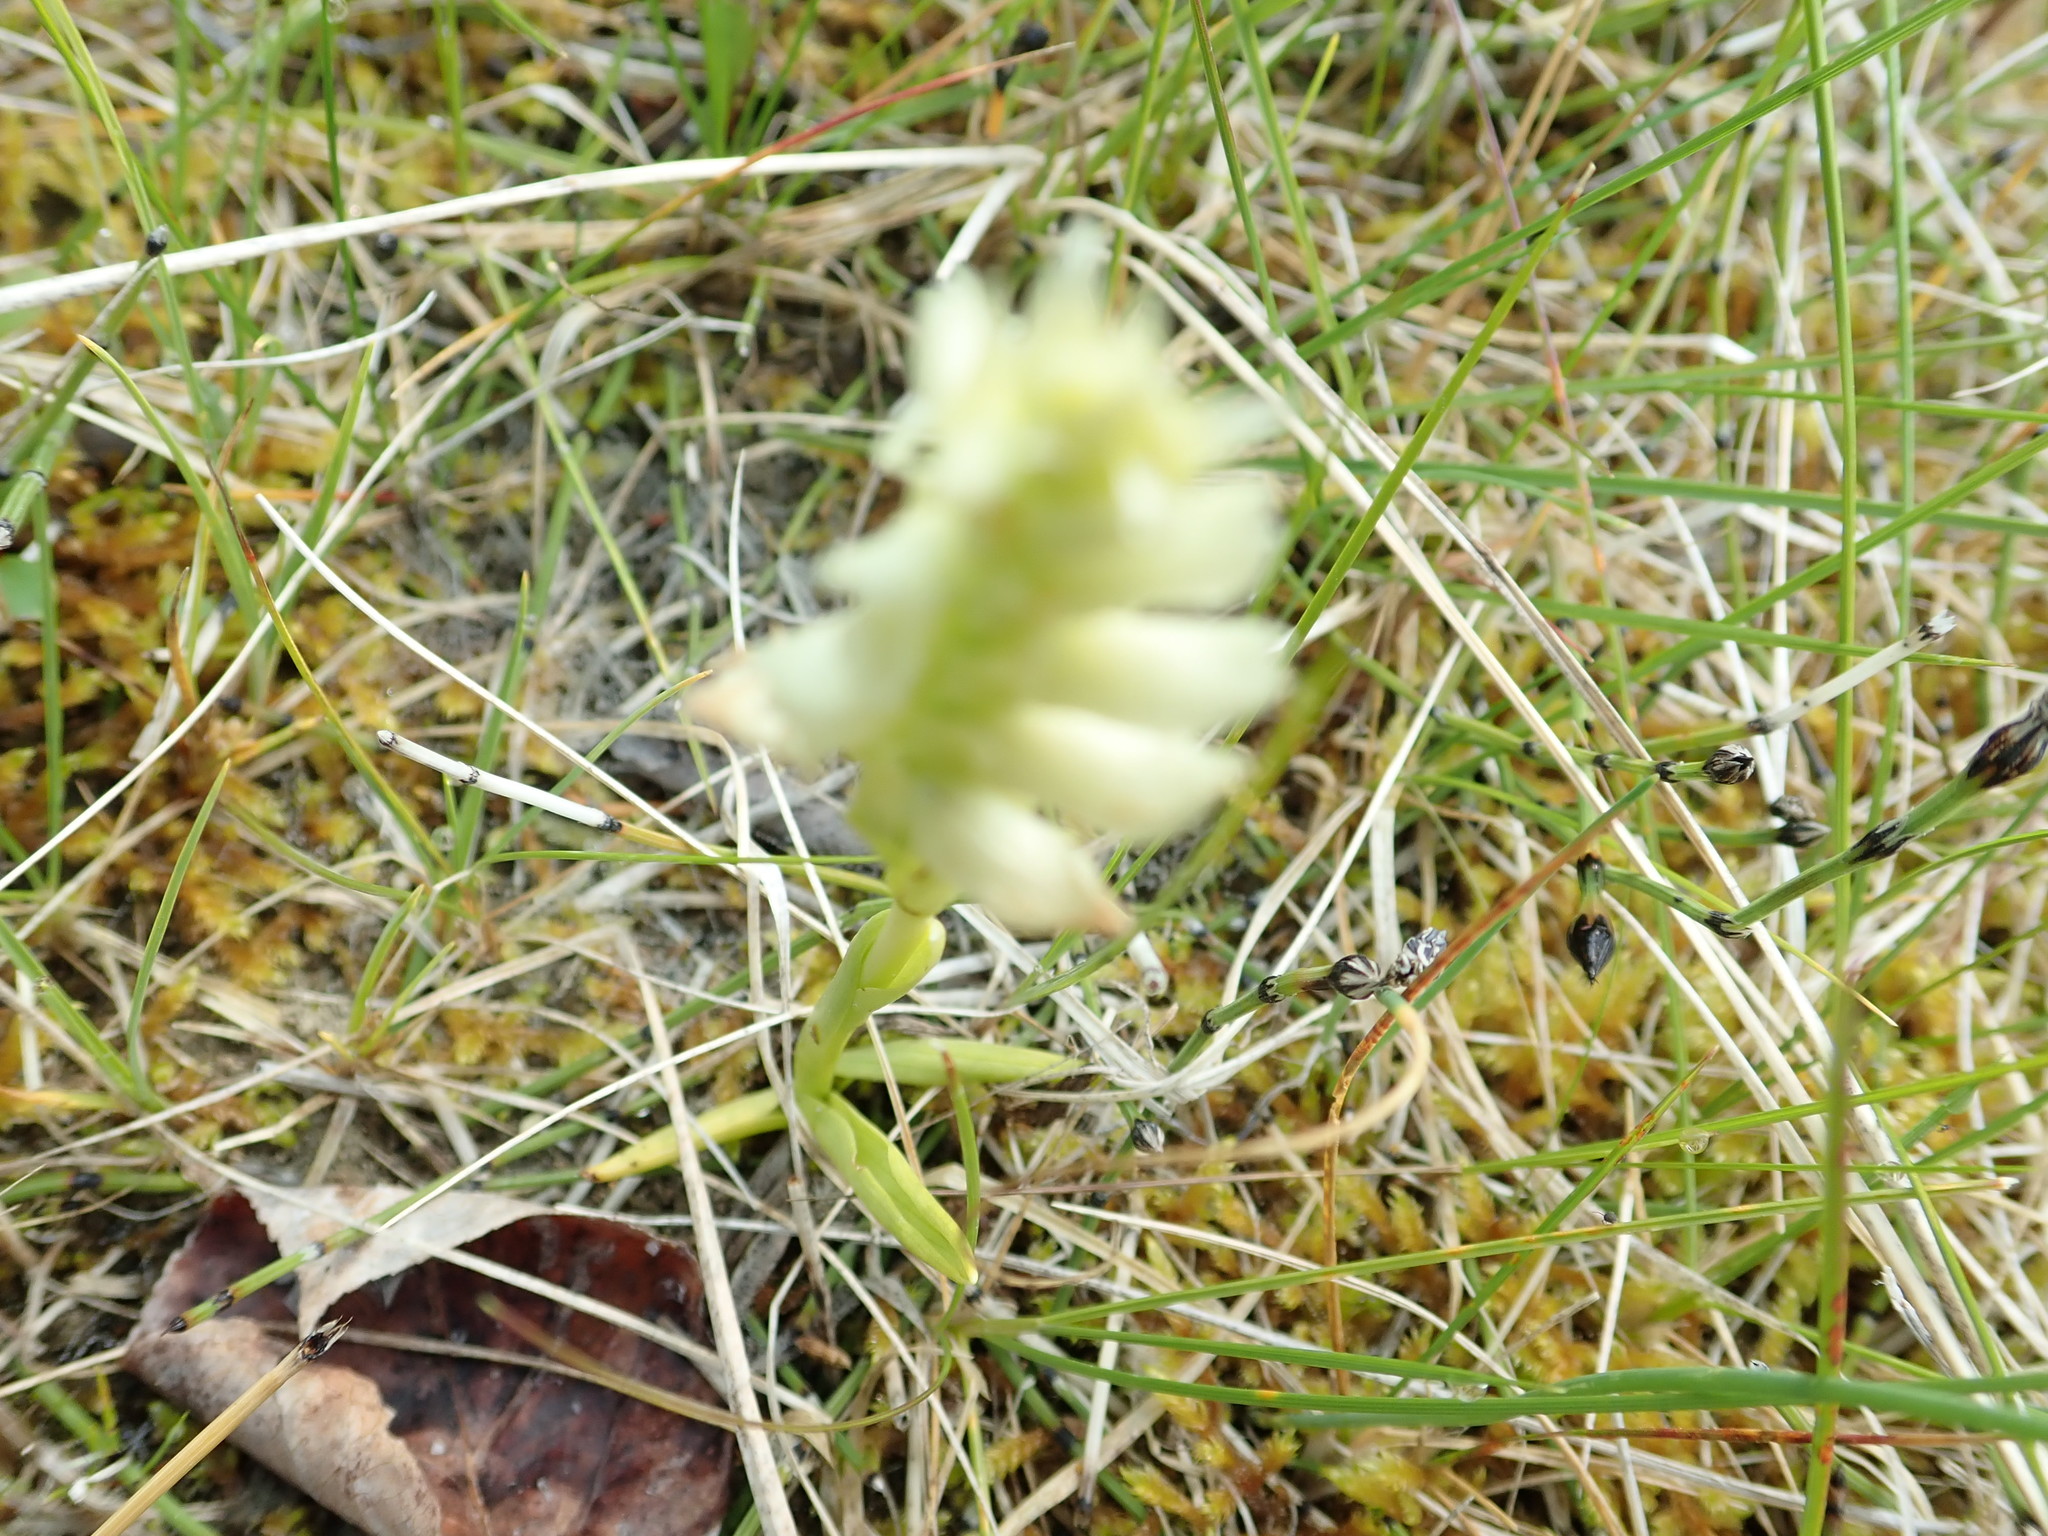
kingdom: Plantae
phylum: Tracheophyta
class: Liliopsida
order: Asparagales
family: Orchidaceae
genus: Spiranthes
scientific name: Spiranthes romanzoffiana
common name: Irish lady's-tresses
